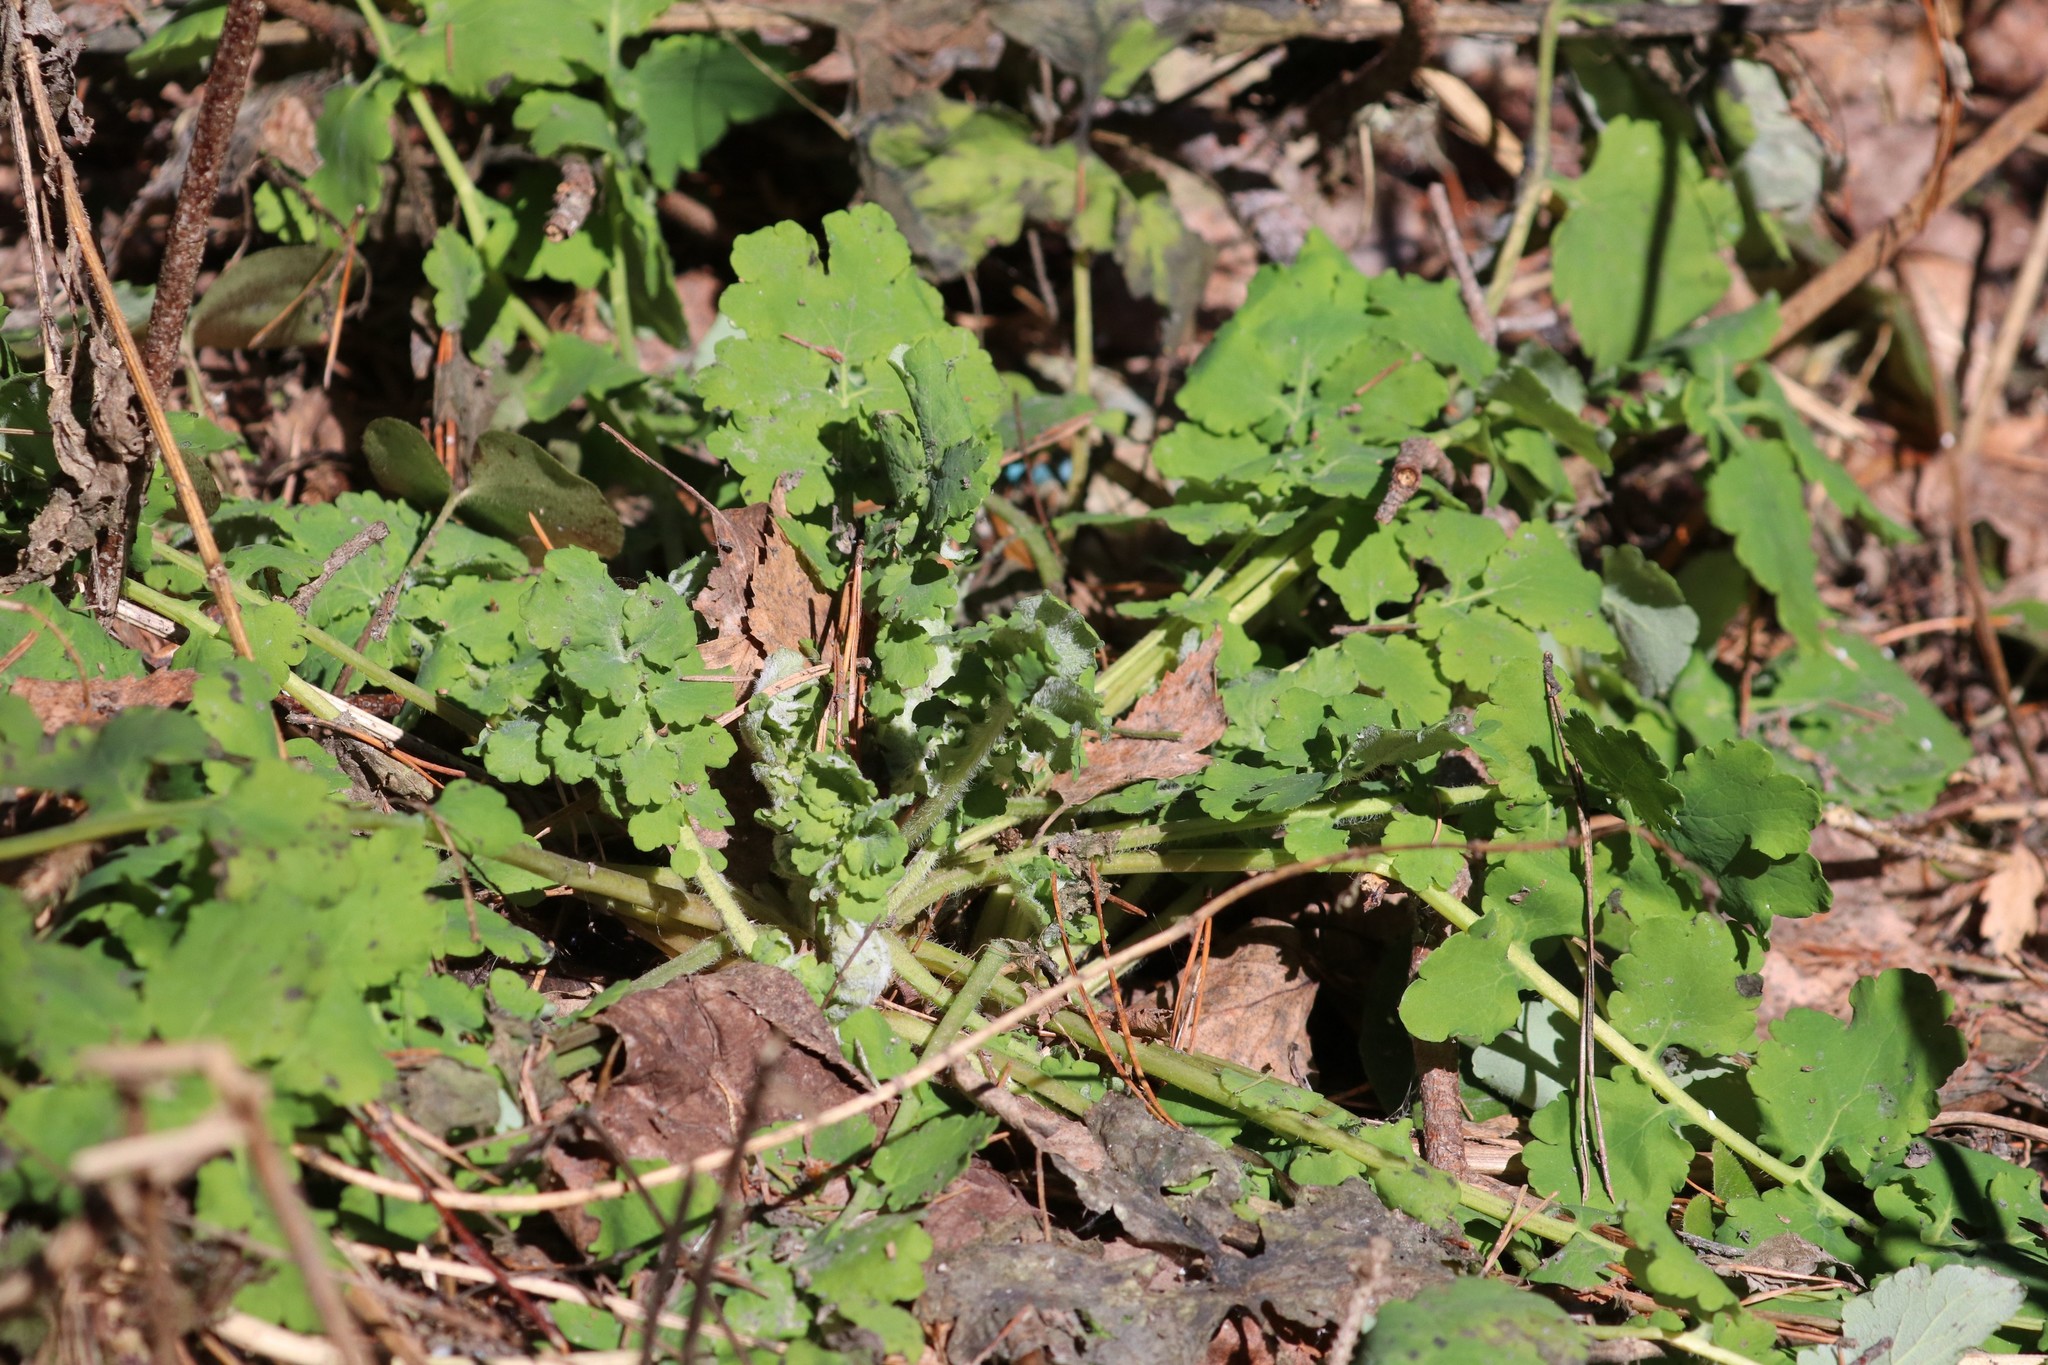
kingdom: Plantae
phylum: Tracheophyta
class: Magnoliopsida
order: Ranunculales
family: Papaveraceae
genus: Chelidonium
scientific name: Chelidonium majus
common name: Greater celandine
